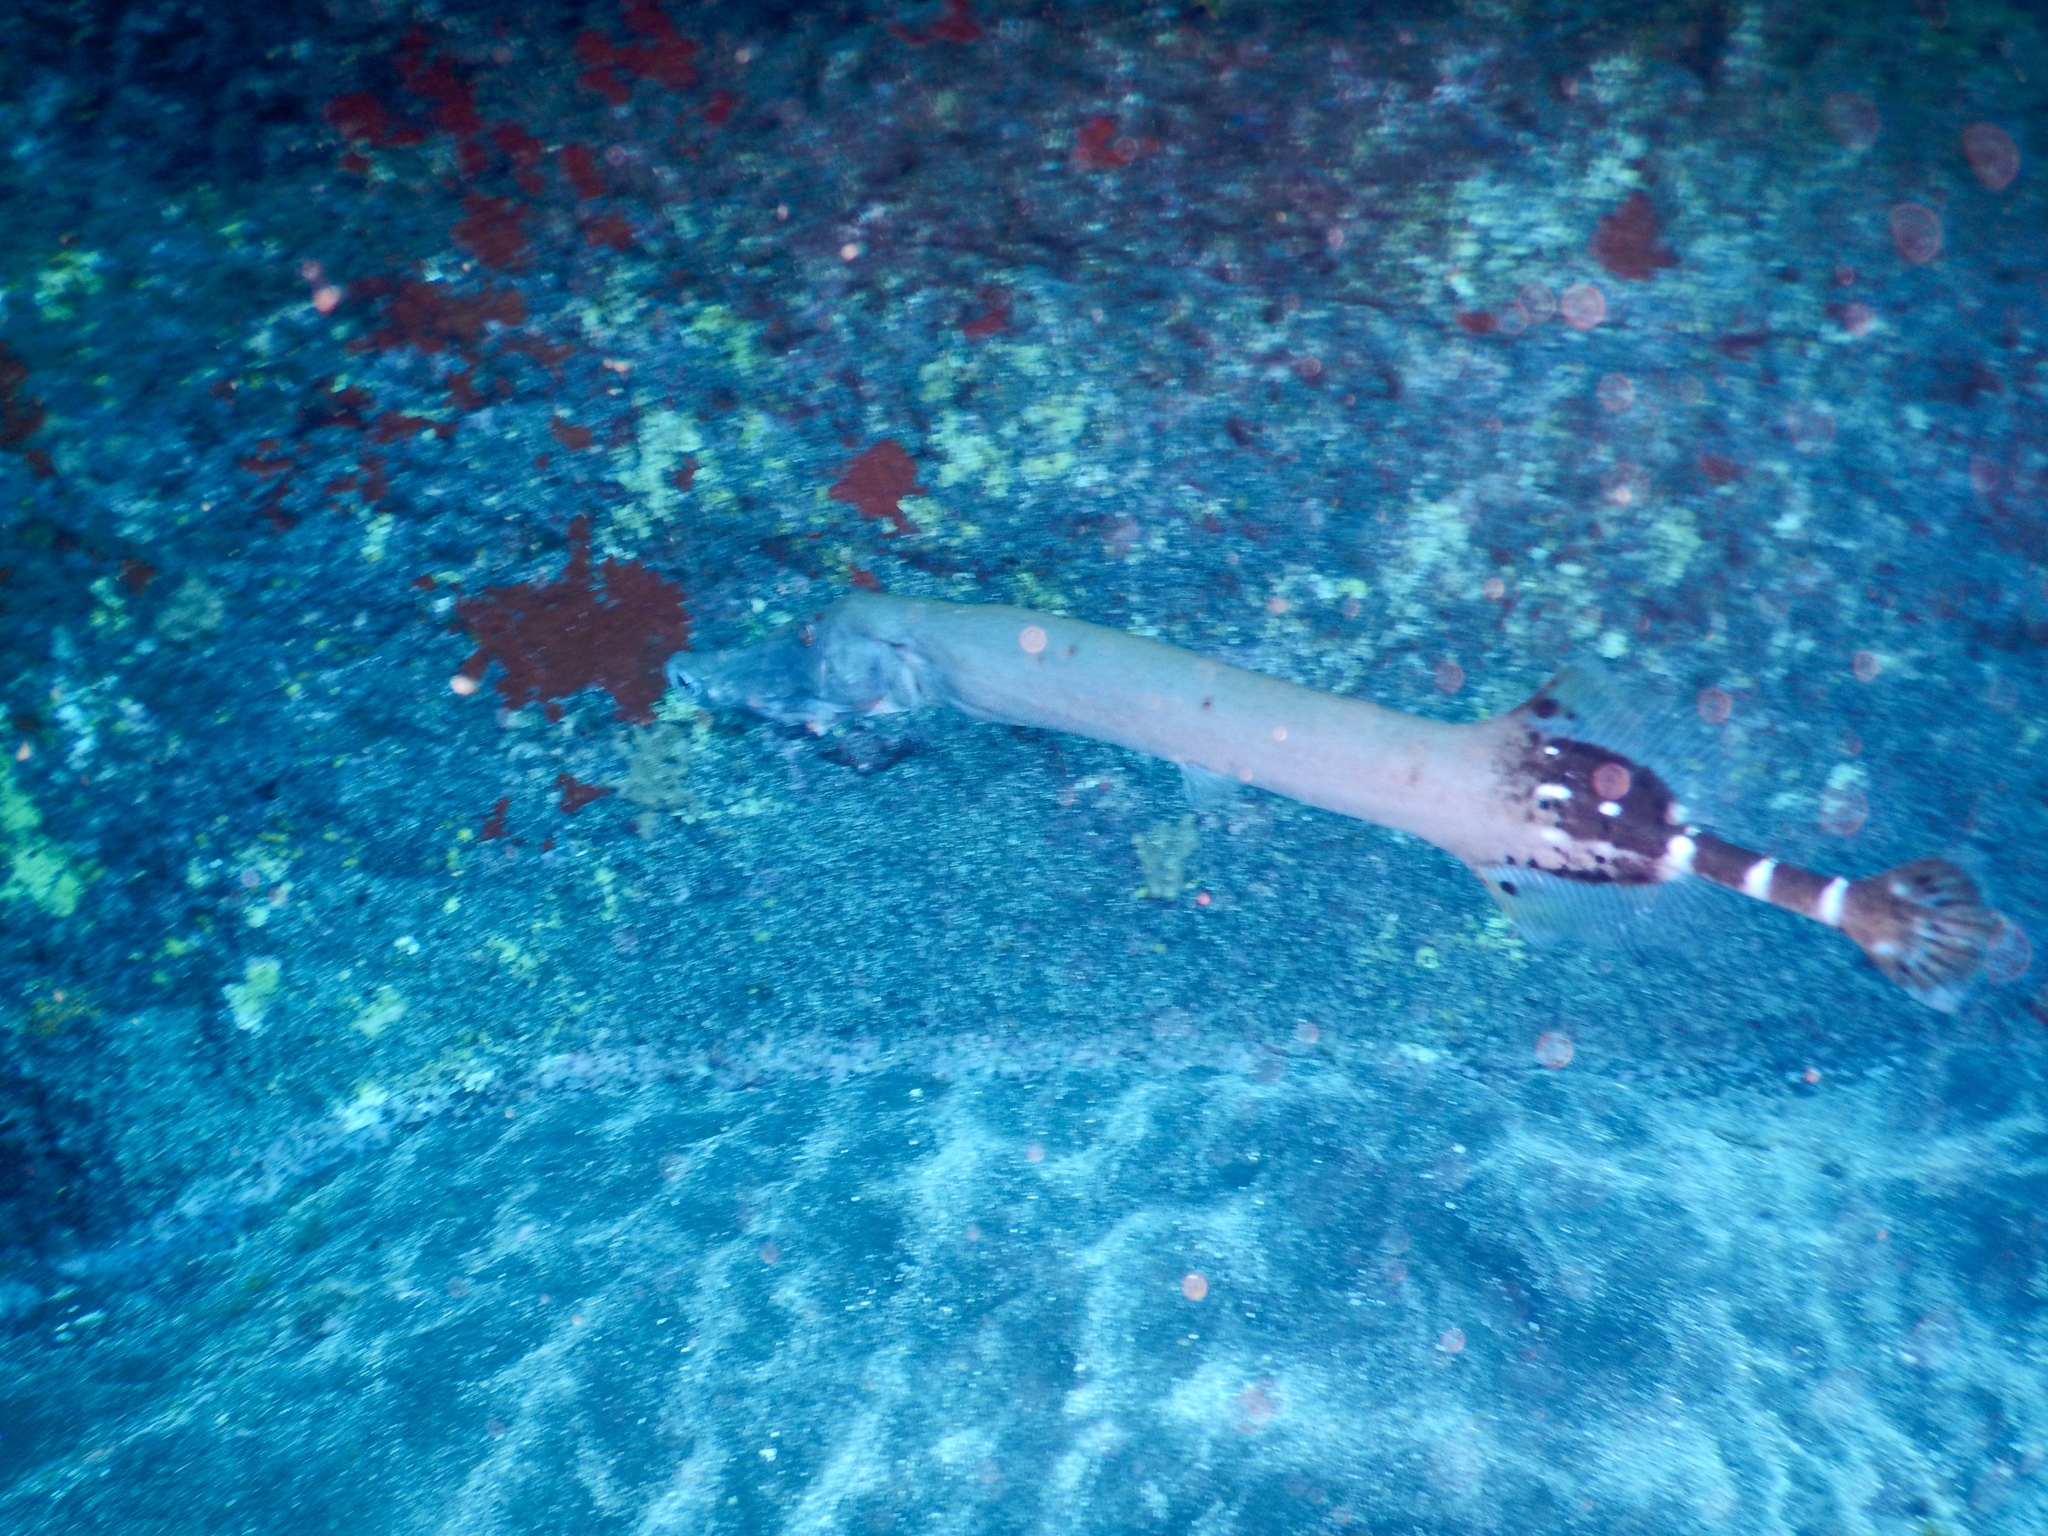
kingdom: Animalia
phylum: Chordata
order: Syngnathiformes
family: Aulostomidae
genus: Aulostomus
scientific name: Aulostomus strigosus
